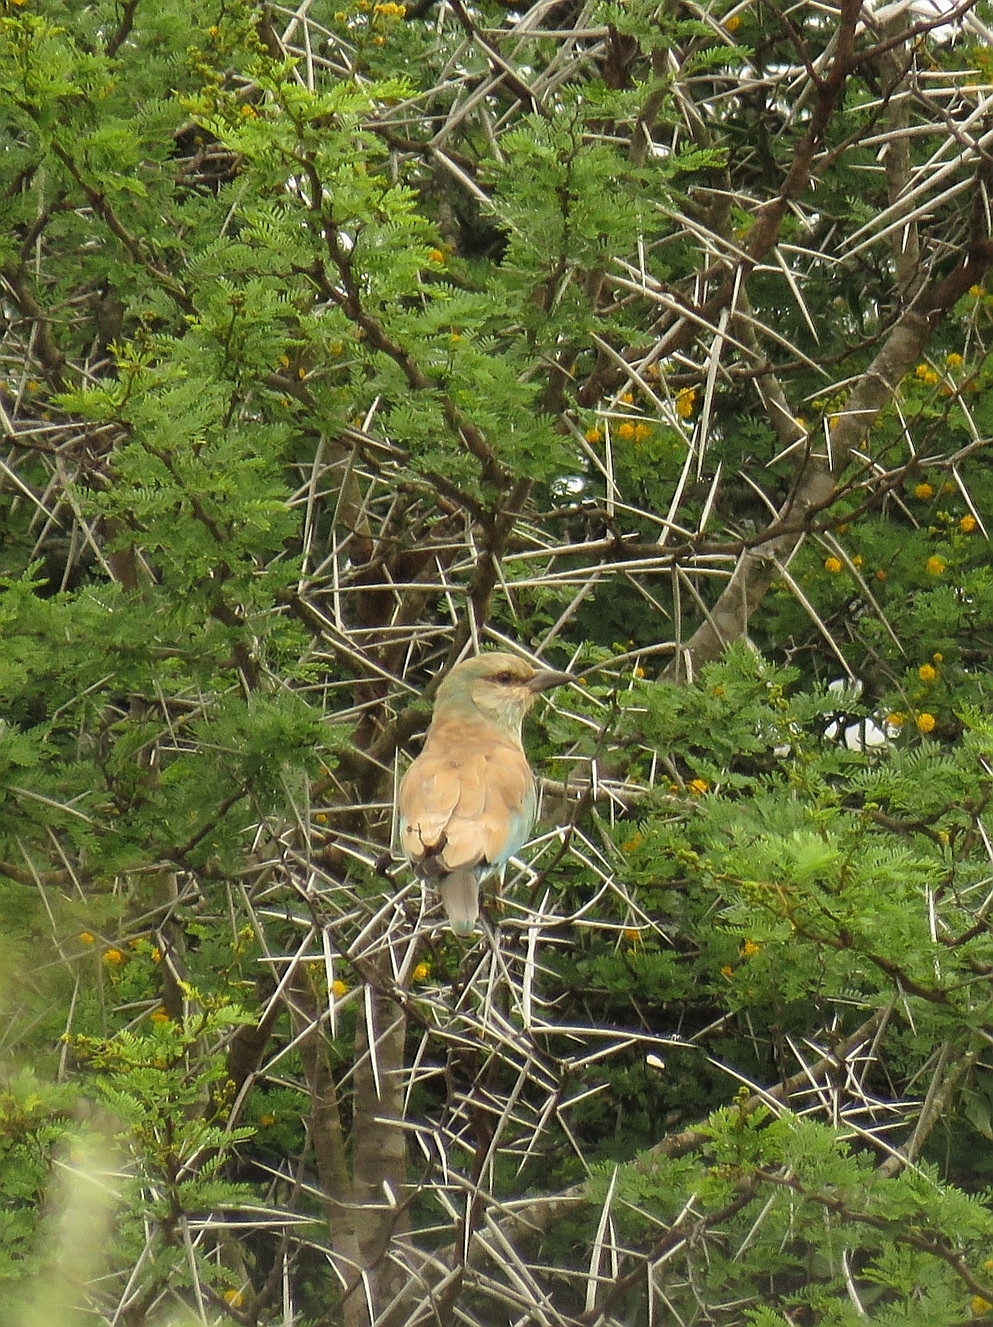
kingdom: Animalia
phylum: Chordata
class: Aves
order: Coraciiformes
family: Coraciidae
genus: Coracias
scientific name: Coracias garrulus
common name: European roller
